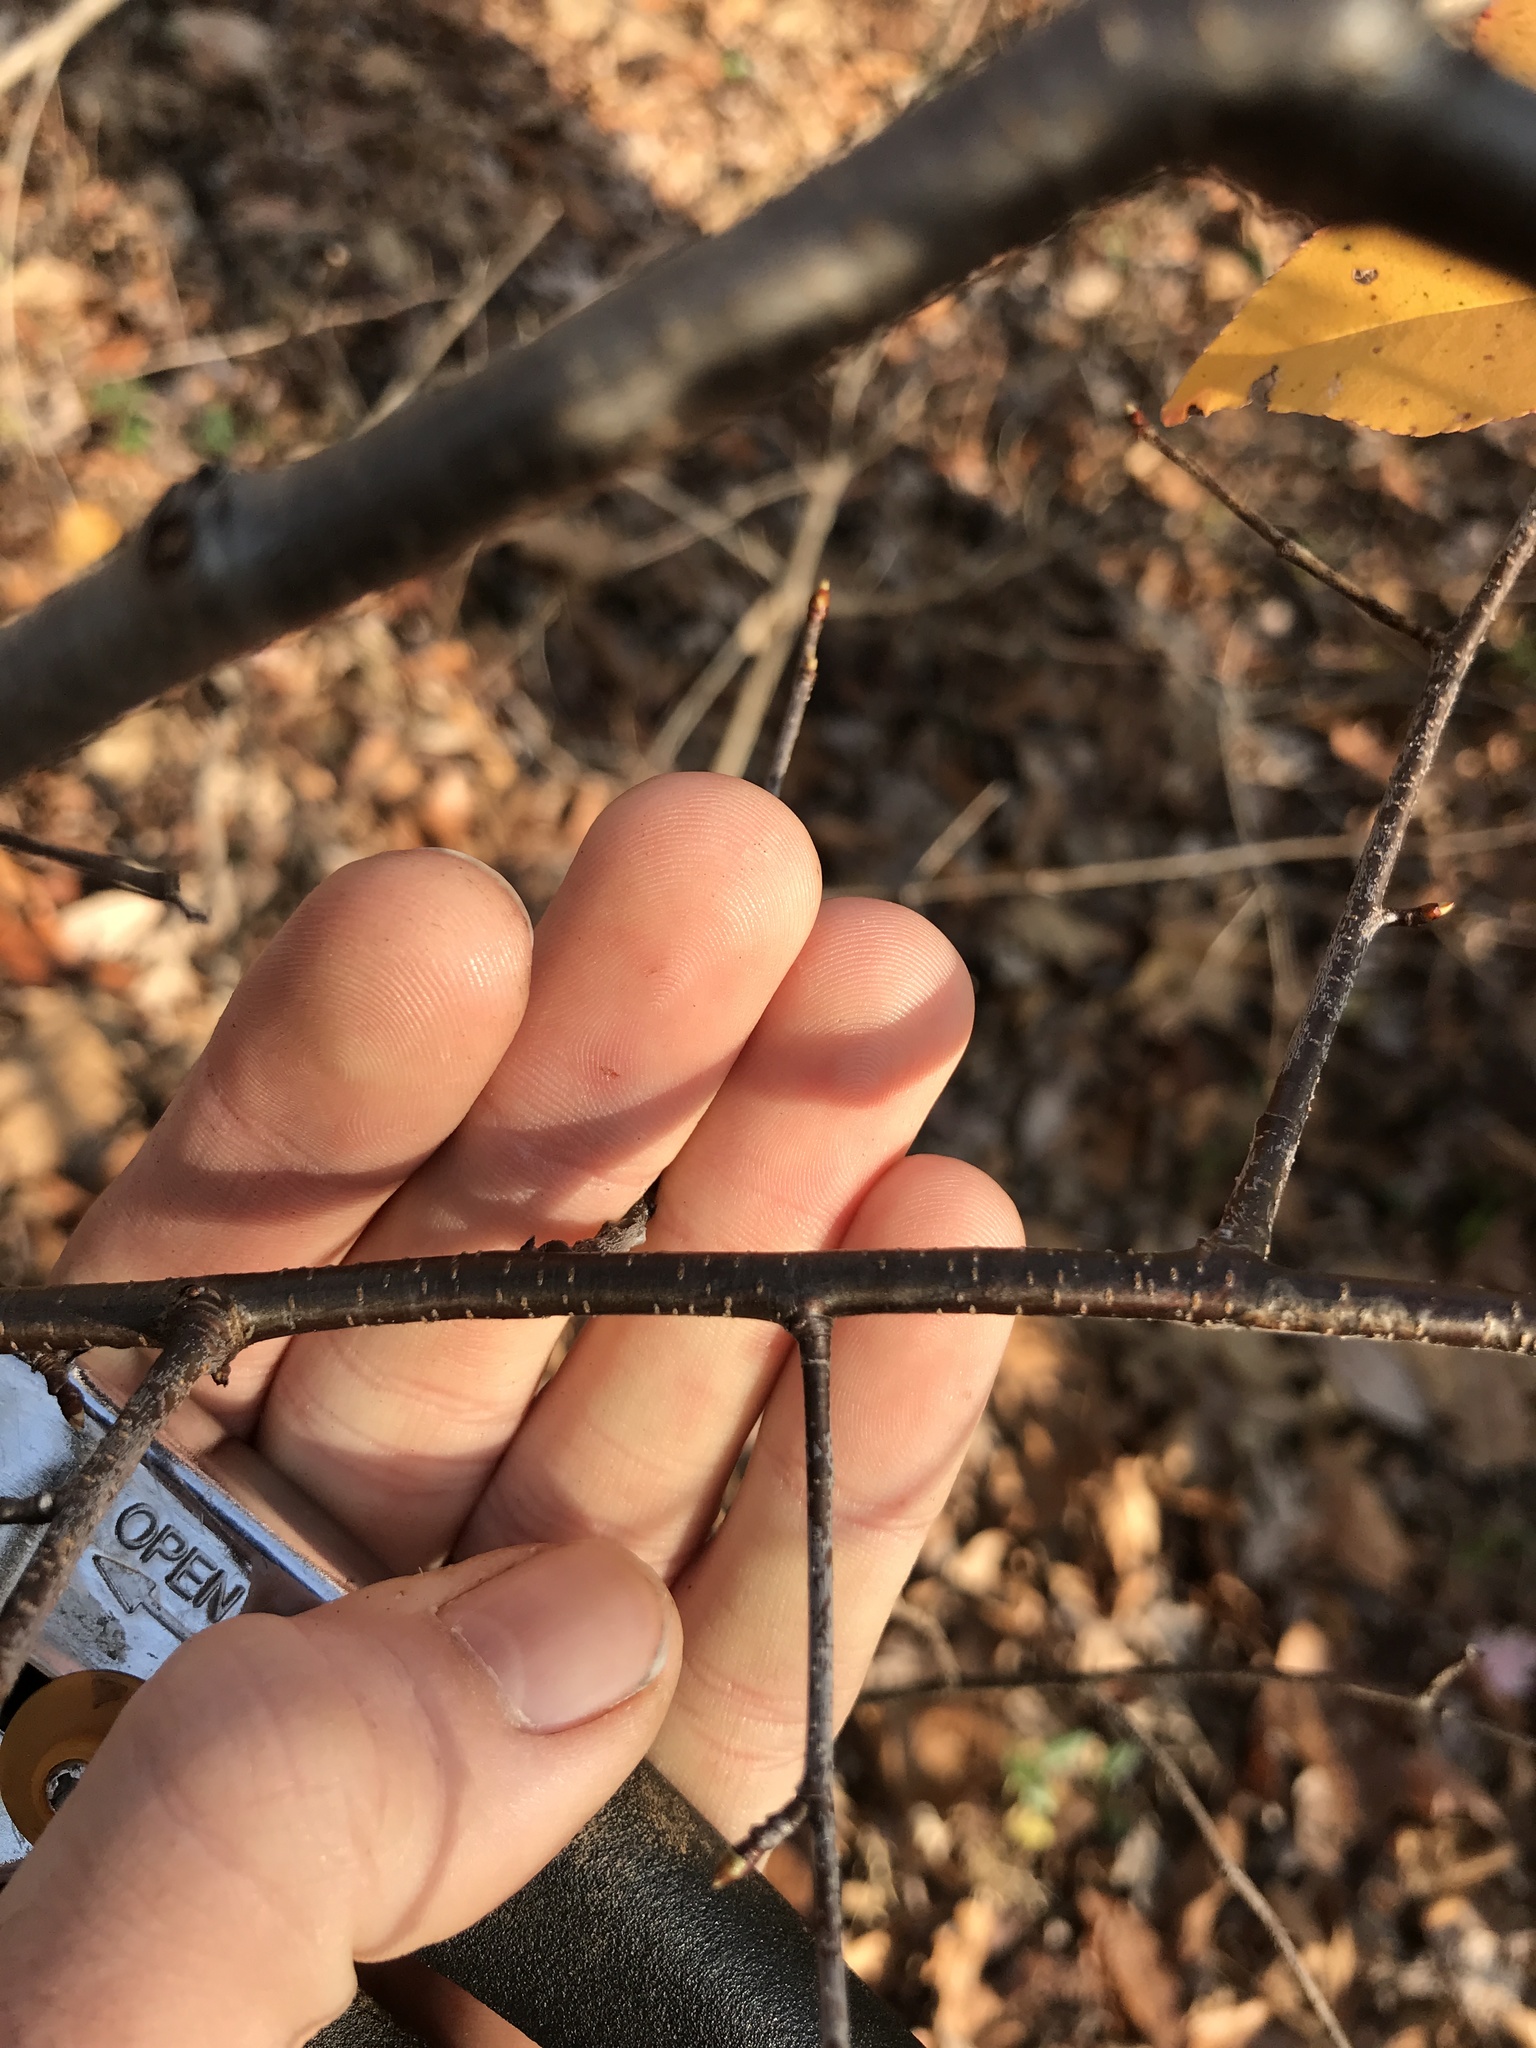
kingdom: Plantae
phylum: Tracheophyta
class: Magnoliopsida
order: Rosales
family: Rosaceae
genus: Prunus
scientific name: Prunus serotina
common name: Black cherry
